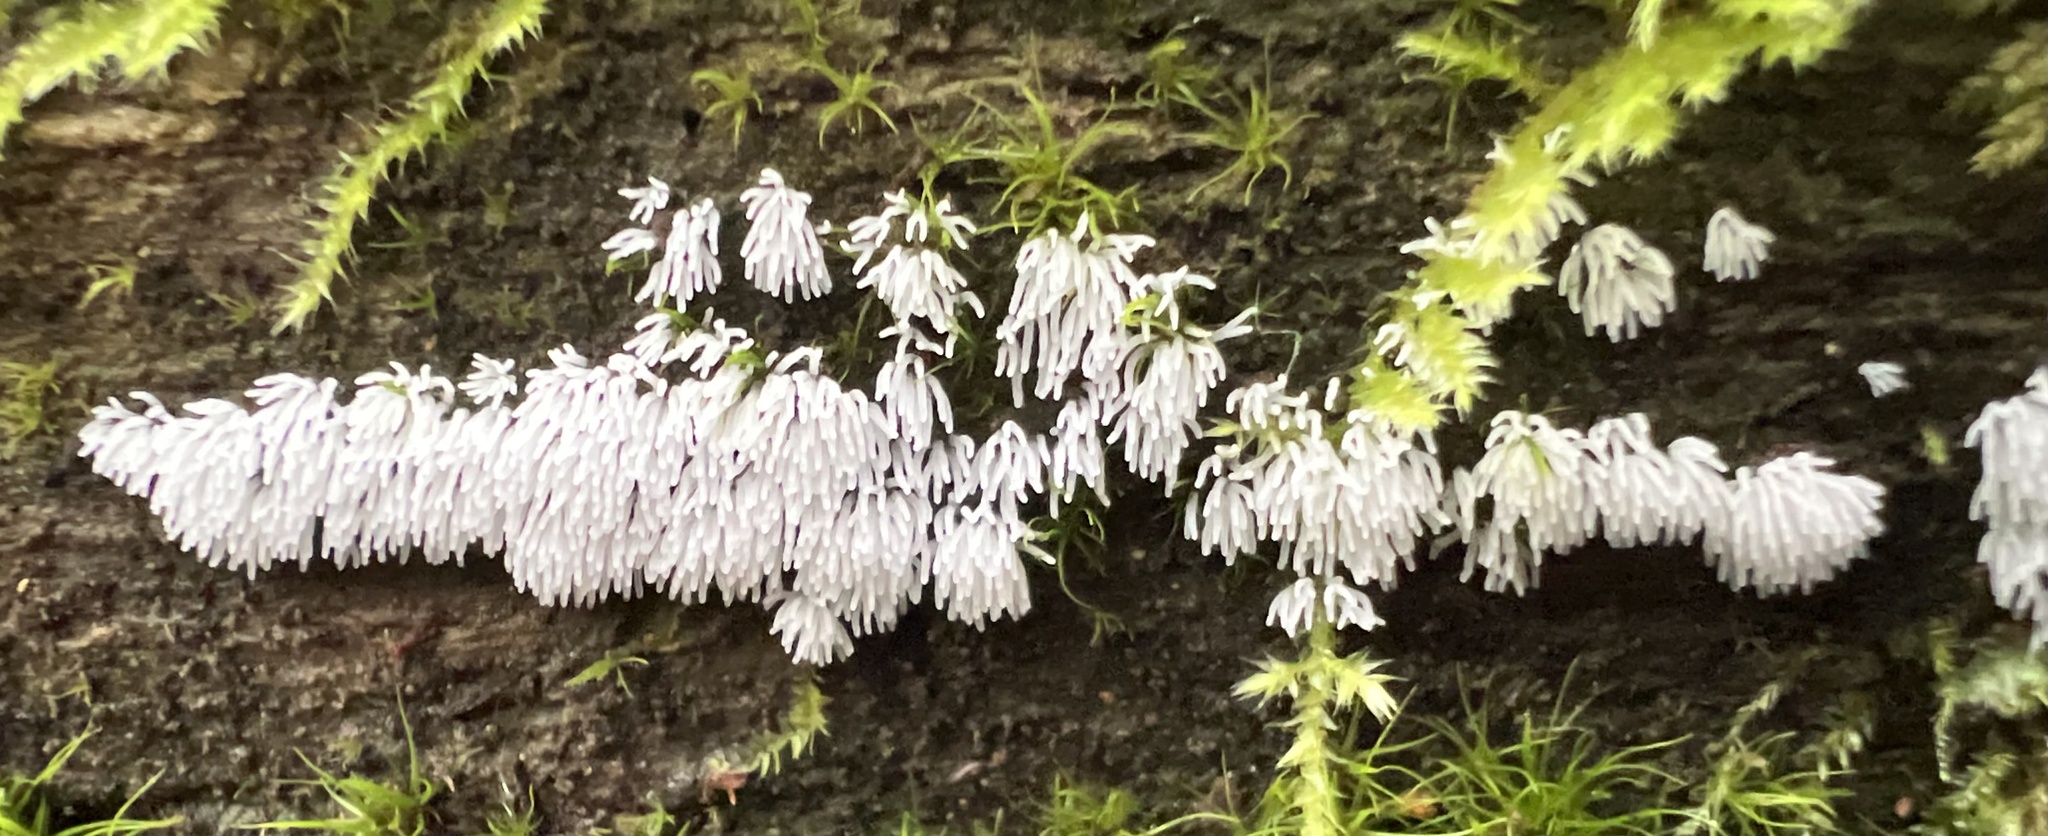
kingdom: Protozoa
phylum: Mycetozoa
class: Protosteliomycetes
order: Ceratiomyxales
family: Ceratiomyxaceae
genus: Ceratiomyxa
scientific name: Ceratiomyxa fruticulosa
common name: Honeycomb coral slime mold
